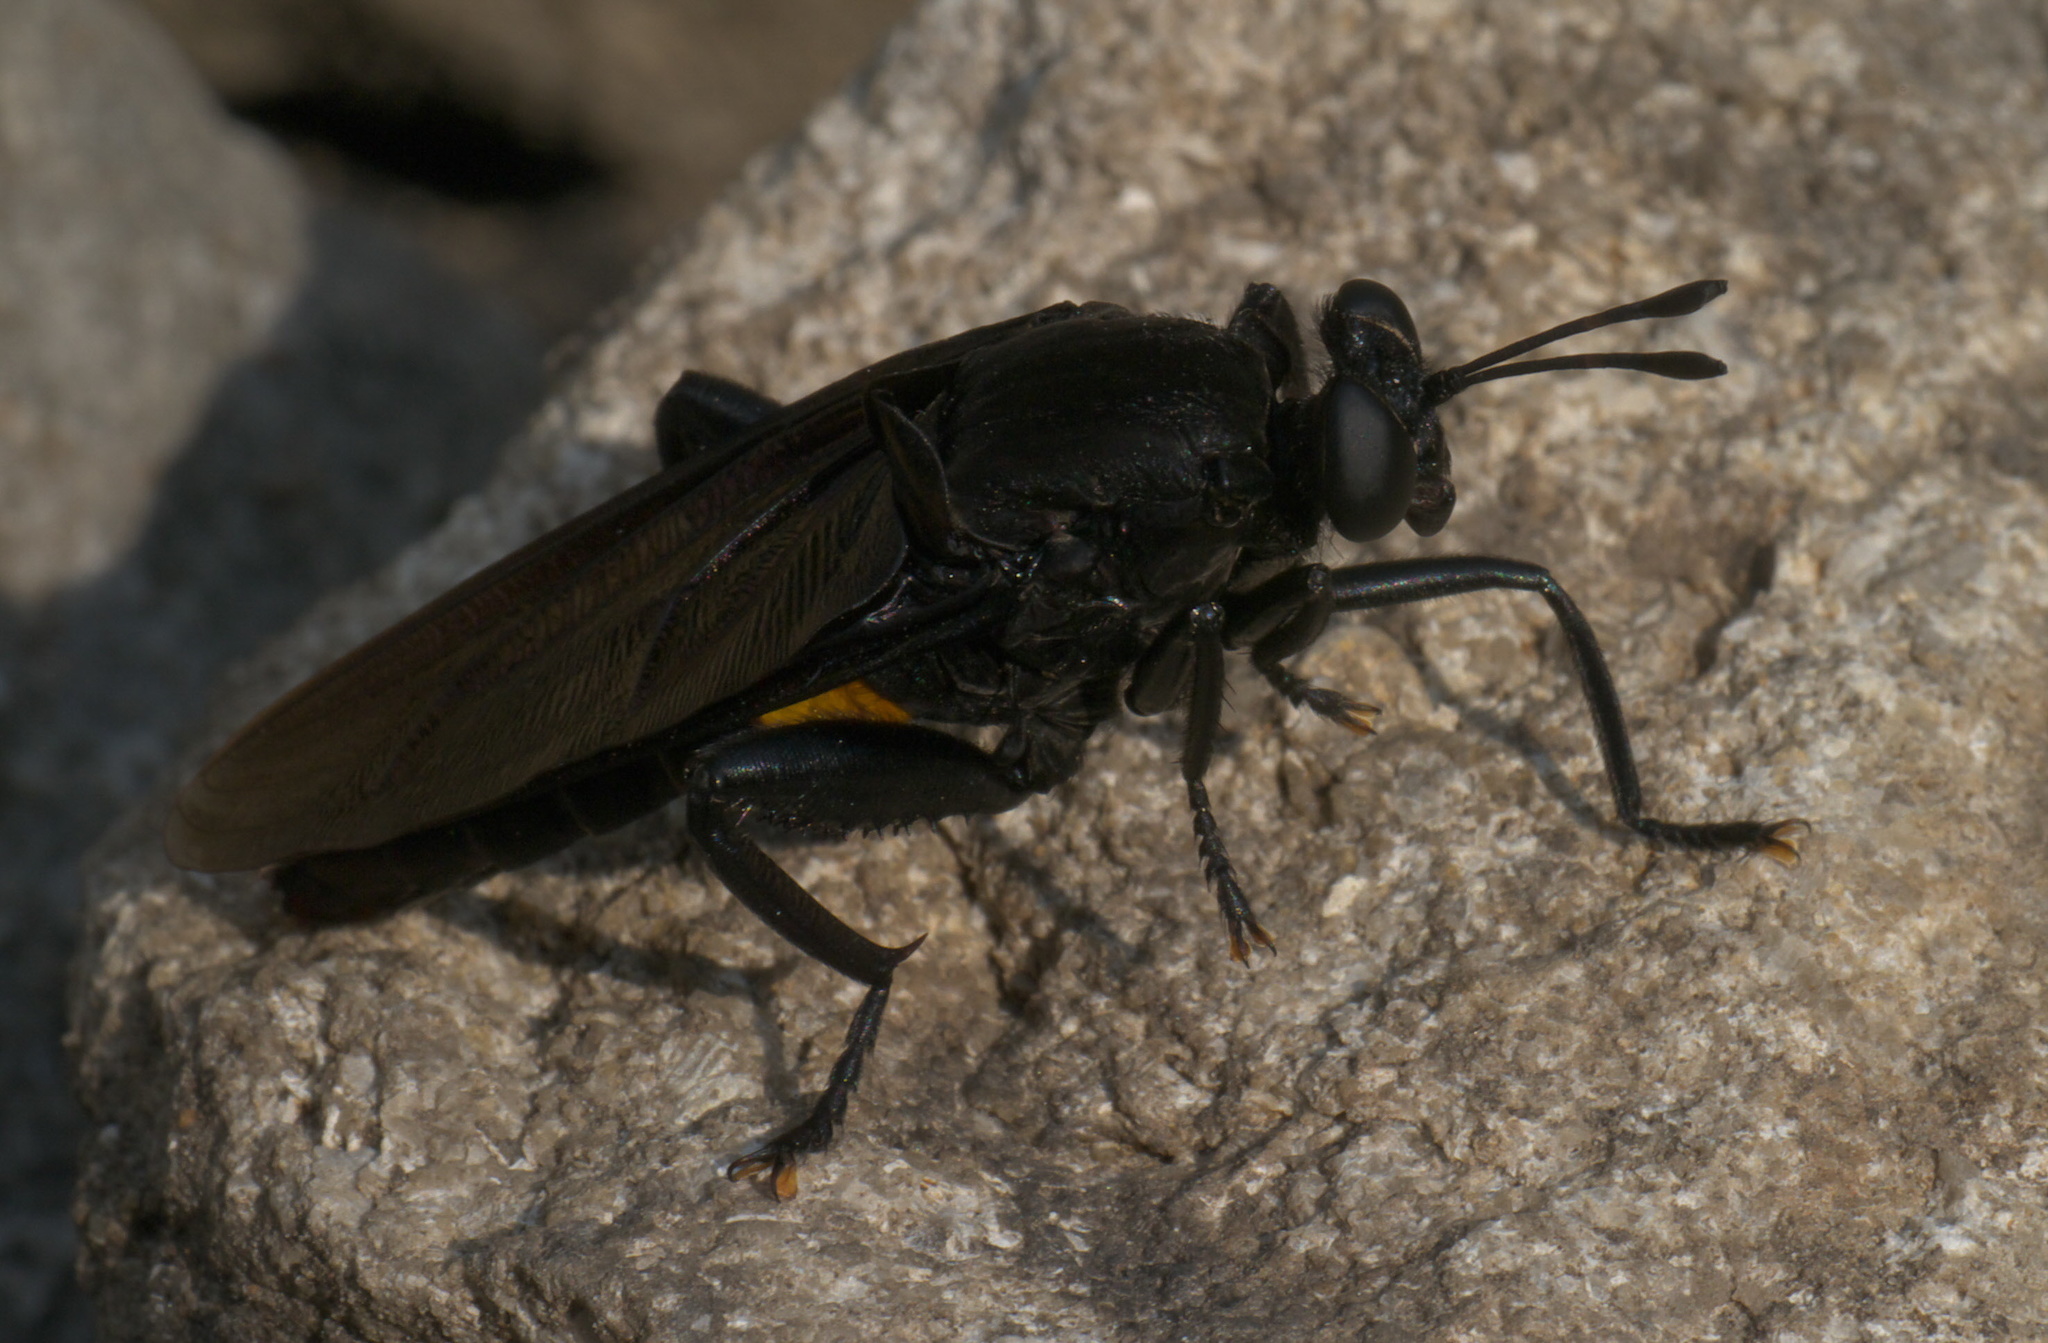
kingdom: Animalia
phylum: Arthropoda
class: Insecta
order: Diptera
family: Mydidae
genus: Mydas
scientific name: Mydas clavatus
